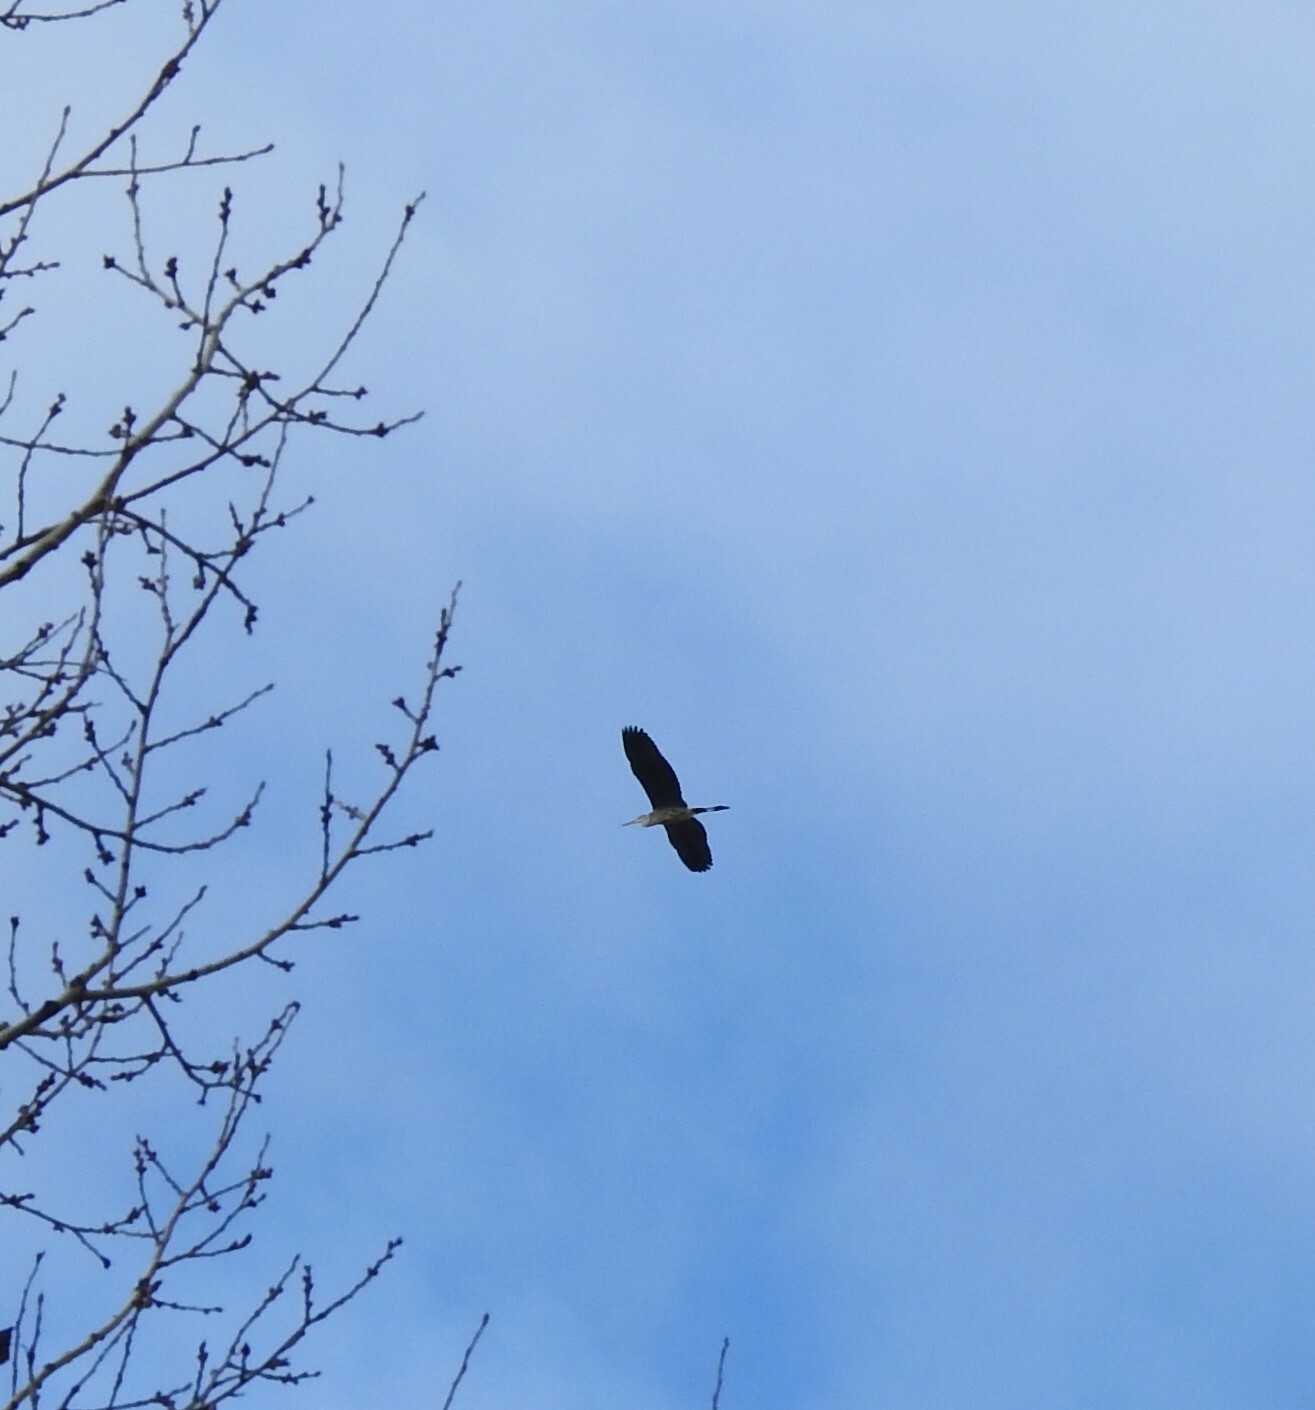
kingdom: Animalia
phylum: Chordata
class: Aves
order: Pelecaniformes
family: Ardeidae
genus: Ardea
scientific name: Ardea cinerea
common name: Grey heron
